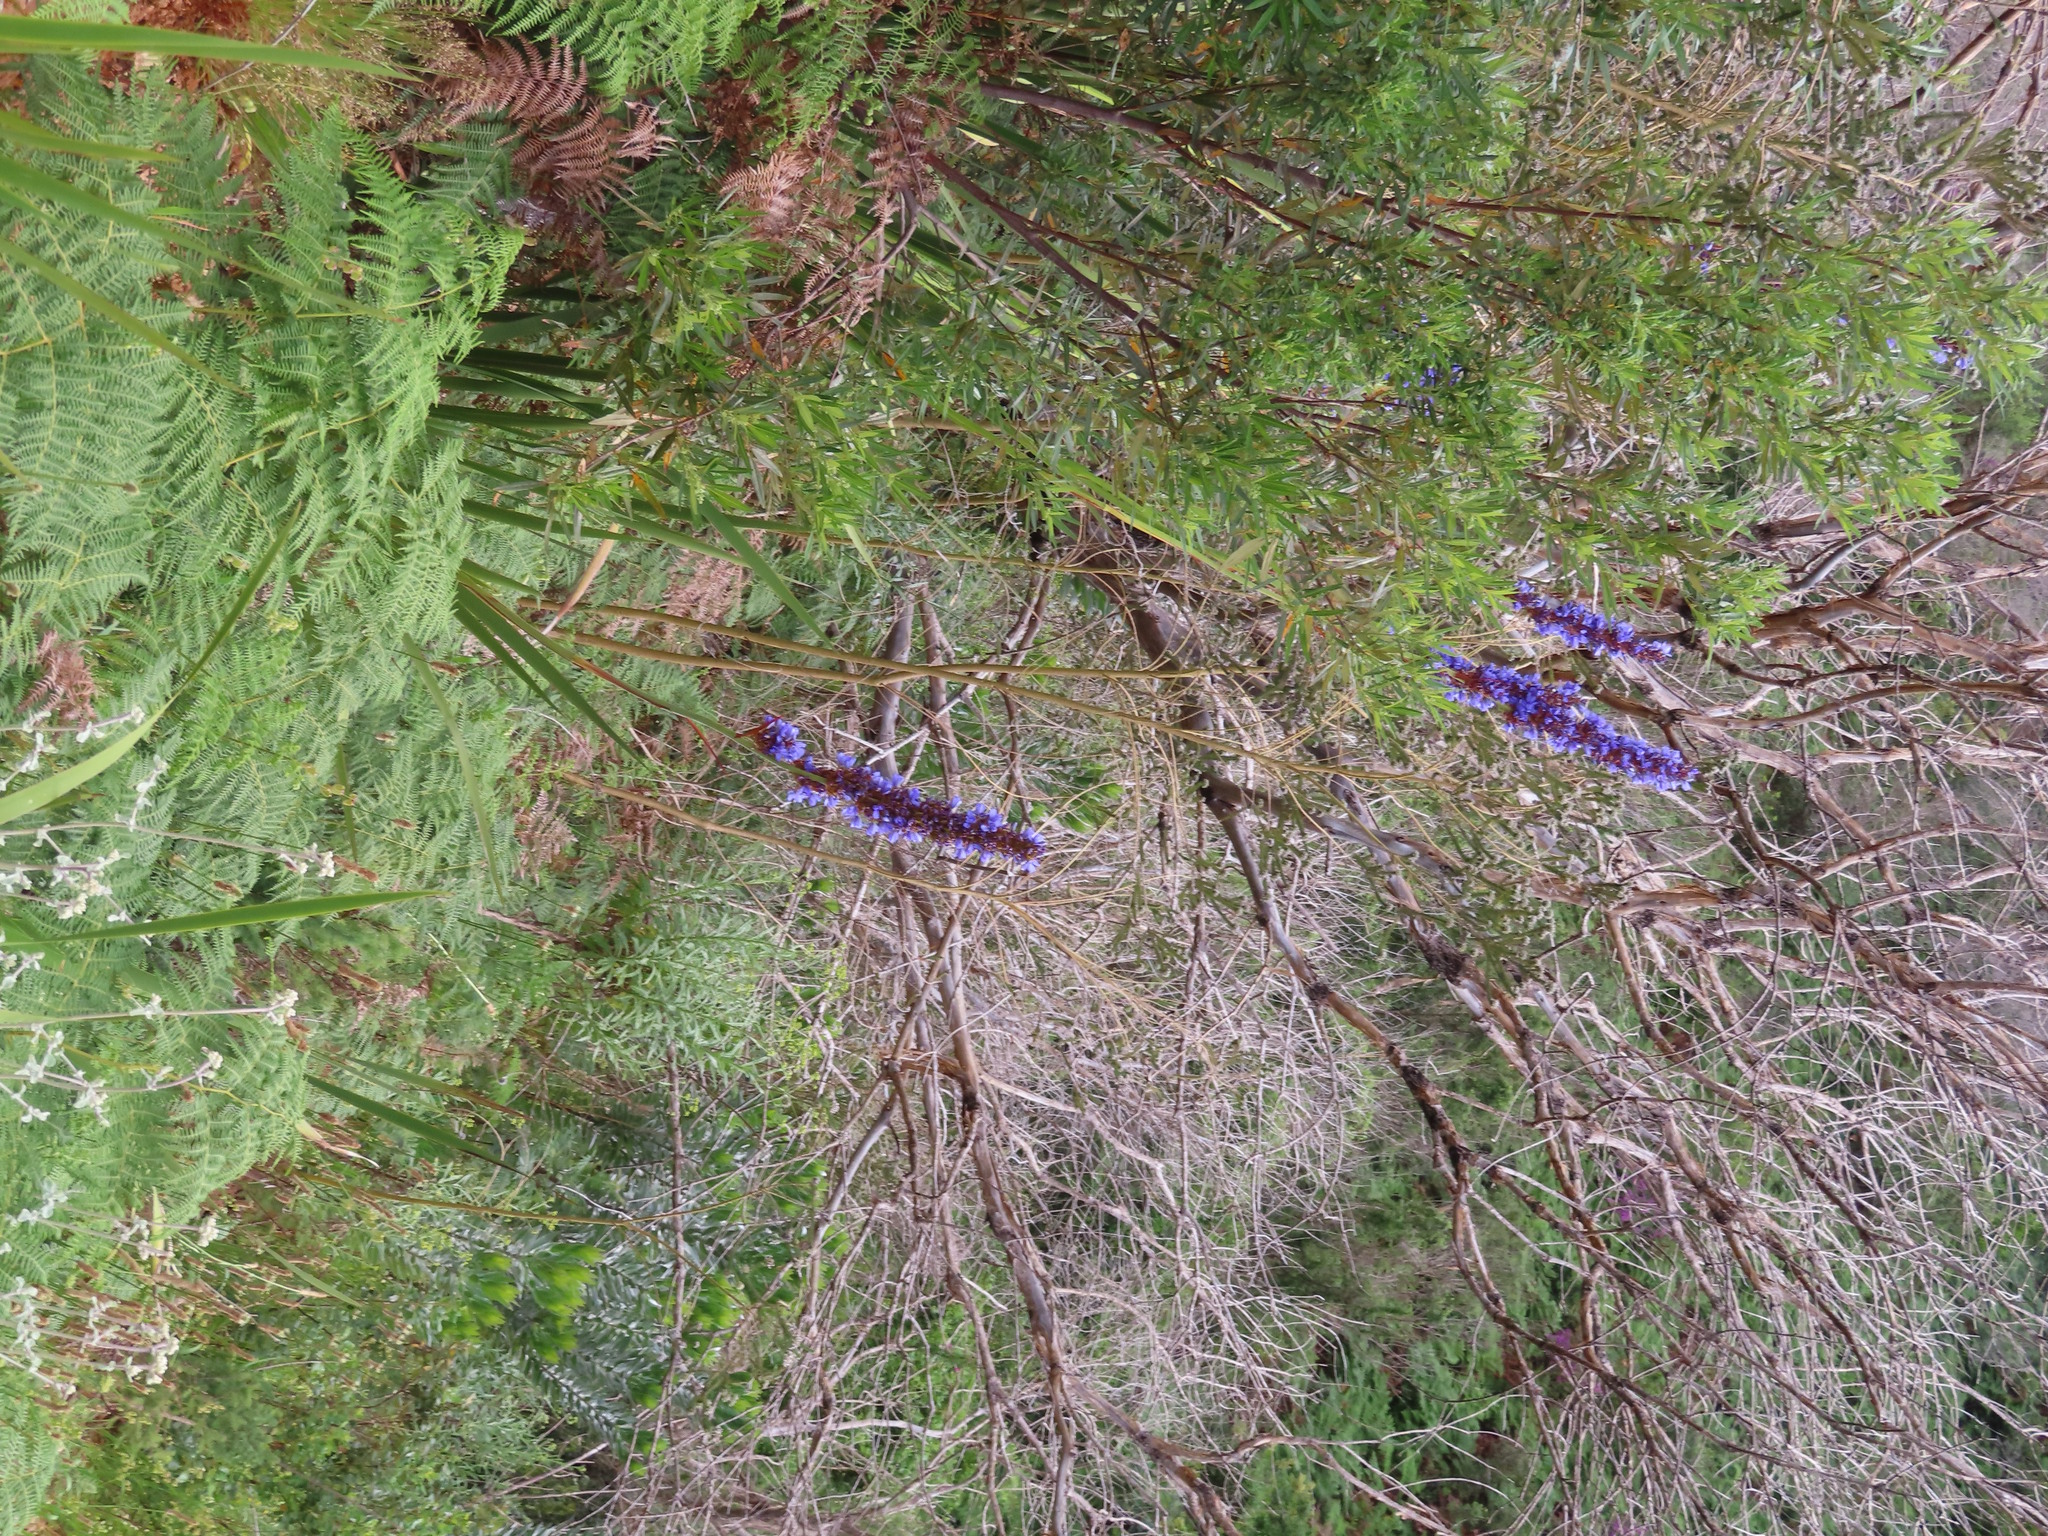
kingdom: Plantae
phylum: Tracheophyta
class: Liliopsida
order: Asparagales
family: Iridaceae
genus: Aristea
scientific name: Aristea capitata
